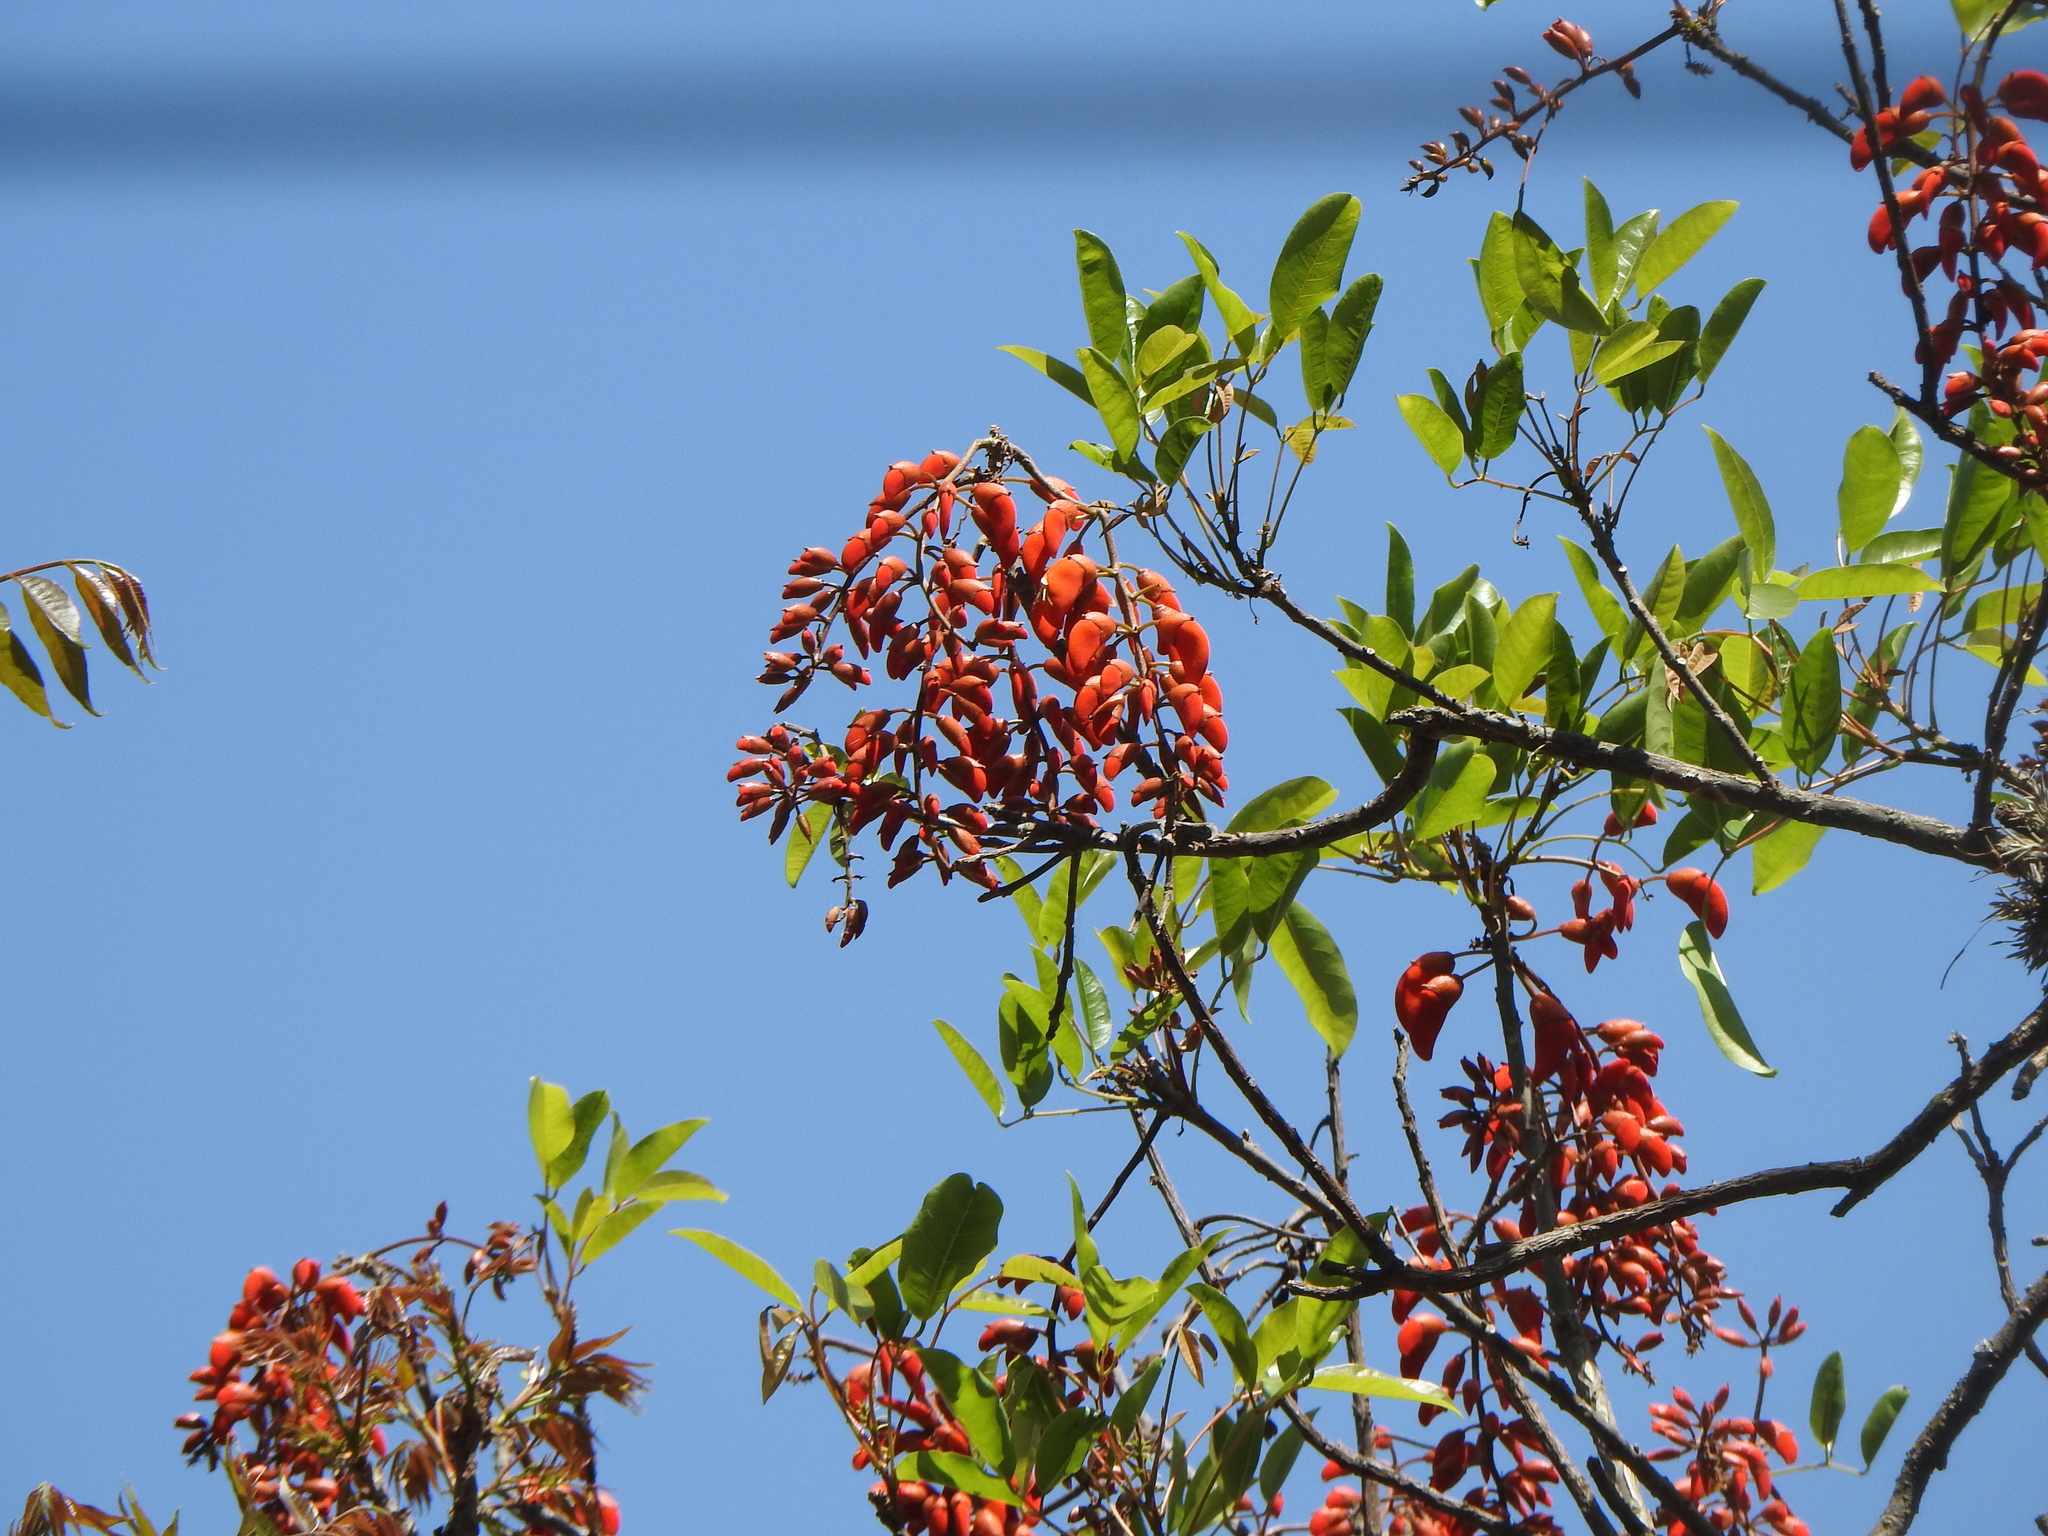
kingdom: Plantae
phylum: Tracheophyta
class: Magnoliopsida
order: Fabales
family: Fabaceae
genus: Erythrina
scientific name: Erythrina falcata
